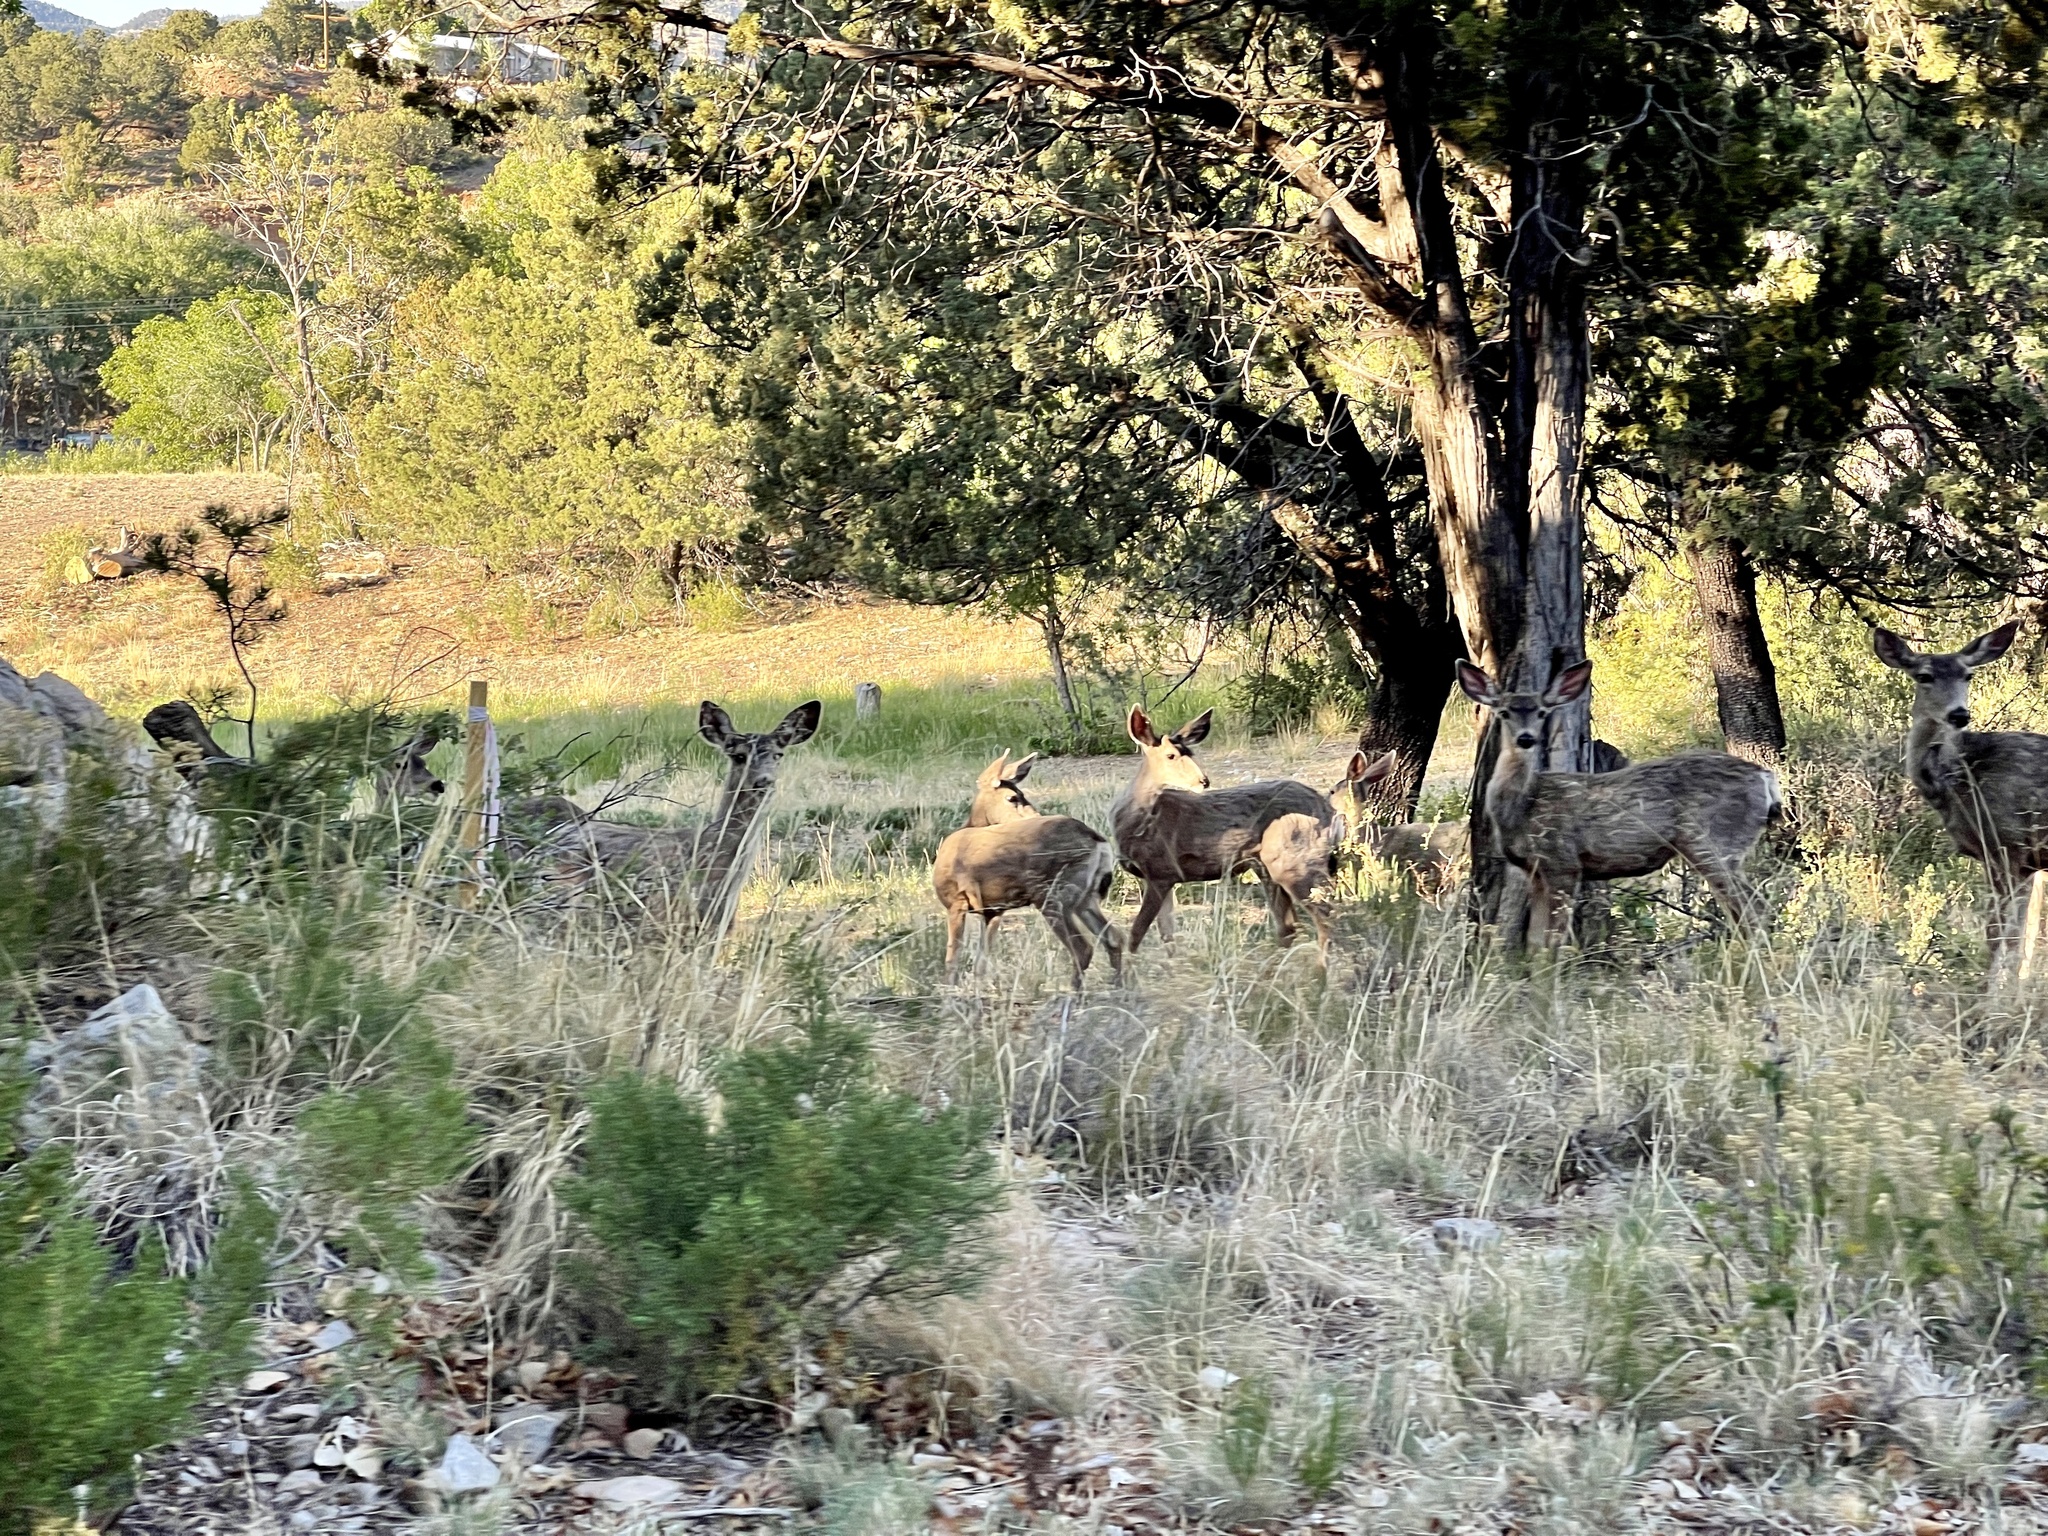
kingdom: Animalia
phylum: Chordata
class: Mammalia
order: Artiodactyla
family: Cervidae
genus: Odocoileus
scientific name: Odocoileus hemionus
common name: Mule deer
